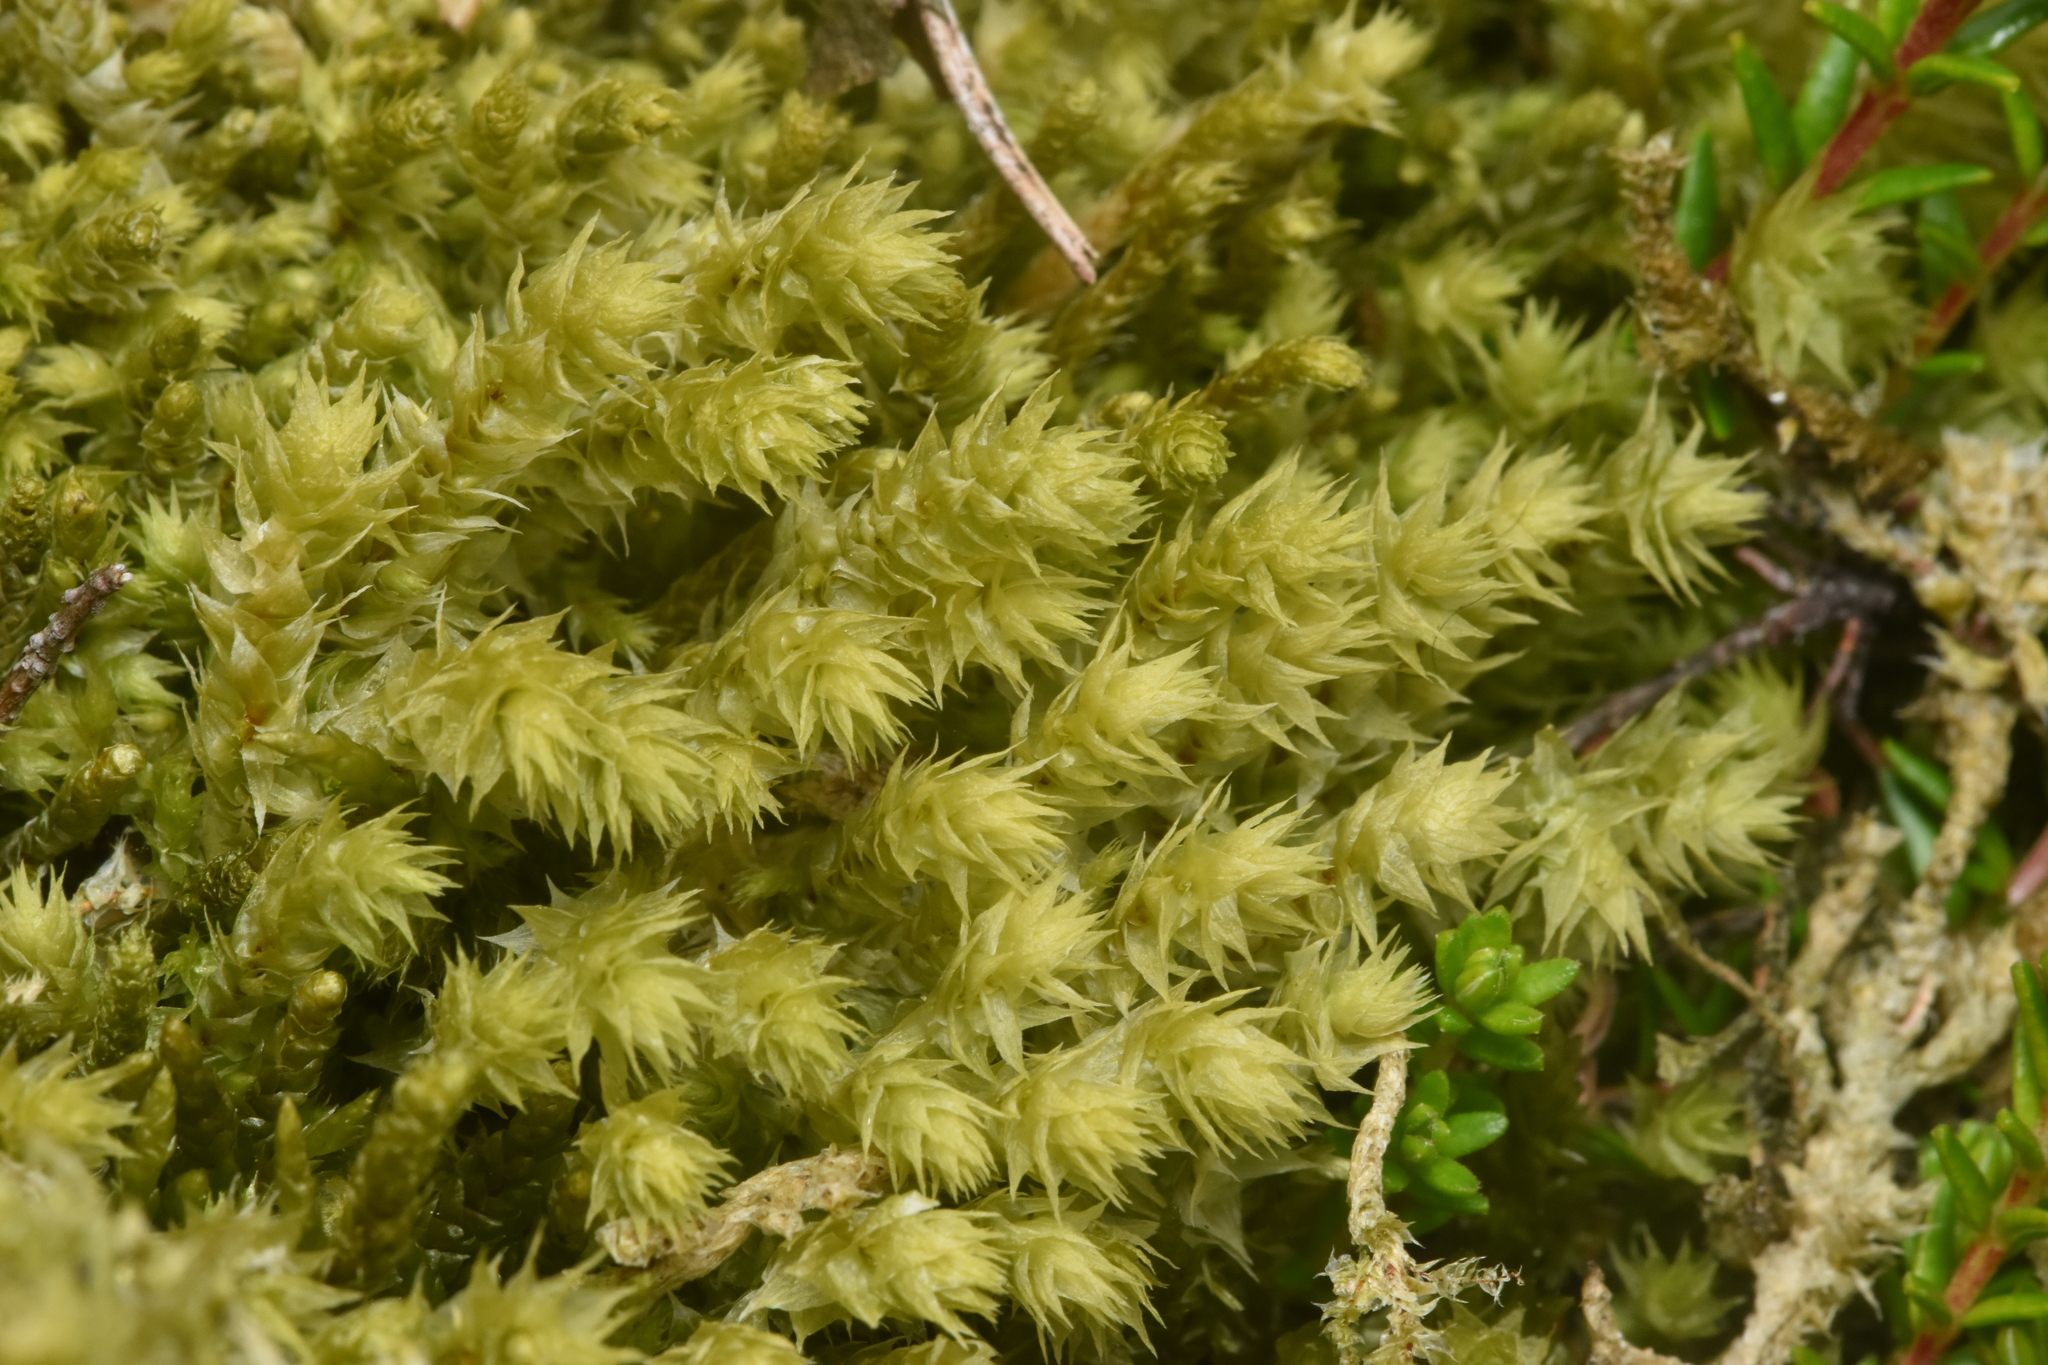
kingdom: Plantae
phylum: Bryophyta
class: Bryopsida
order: Hypnales
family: Hylocomiaceae
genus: Hylocomiadelphus
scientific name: Hylocomiadelphus triquetrus
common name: Rough goose neck moss
